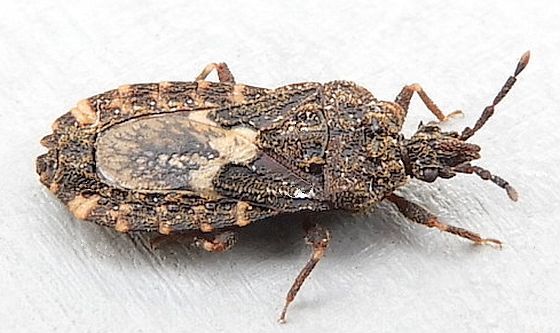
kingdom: Animalia
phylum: Arthropoda
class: Insecta
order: Hemiptera
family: Aradidae
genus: Mezira
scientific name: Mezira
